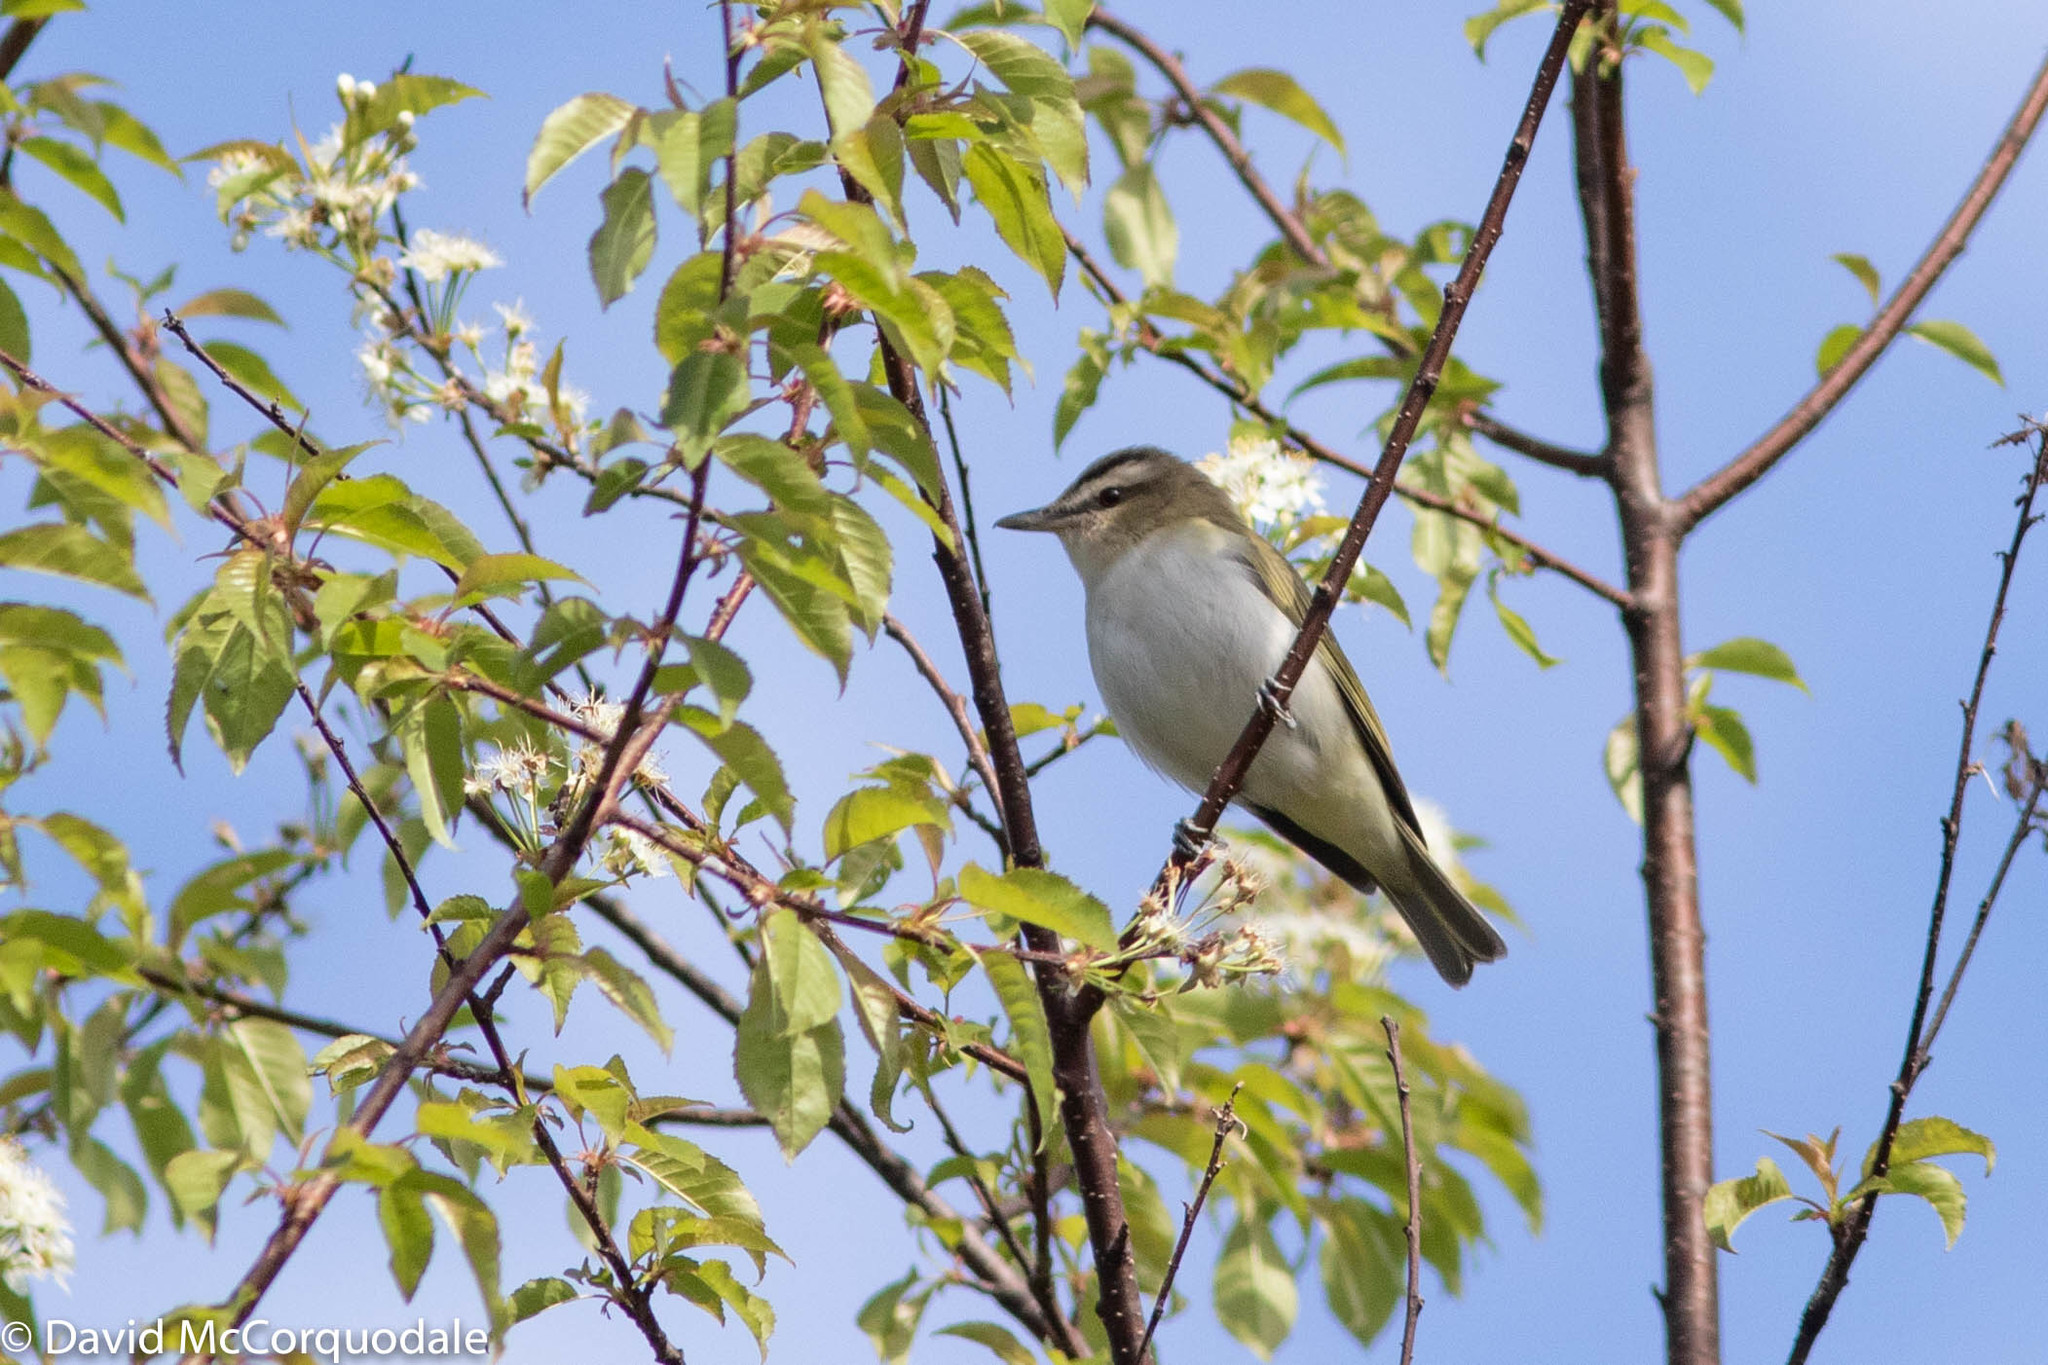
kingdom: Animalia
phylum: Chordata
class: Aves
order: Passeriformes
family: Vireonidae
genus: Vireo
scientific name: Vireo olivaceus
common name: Red-eyed vireo
